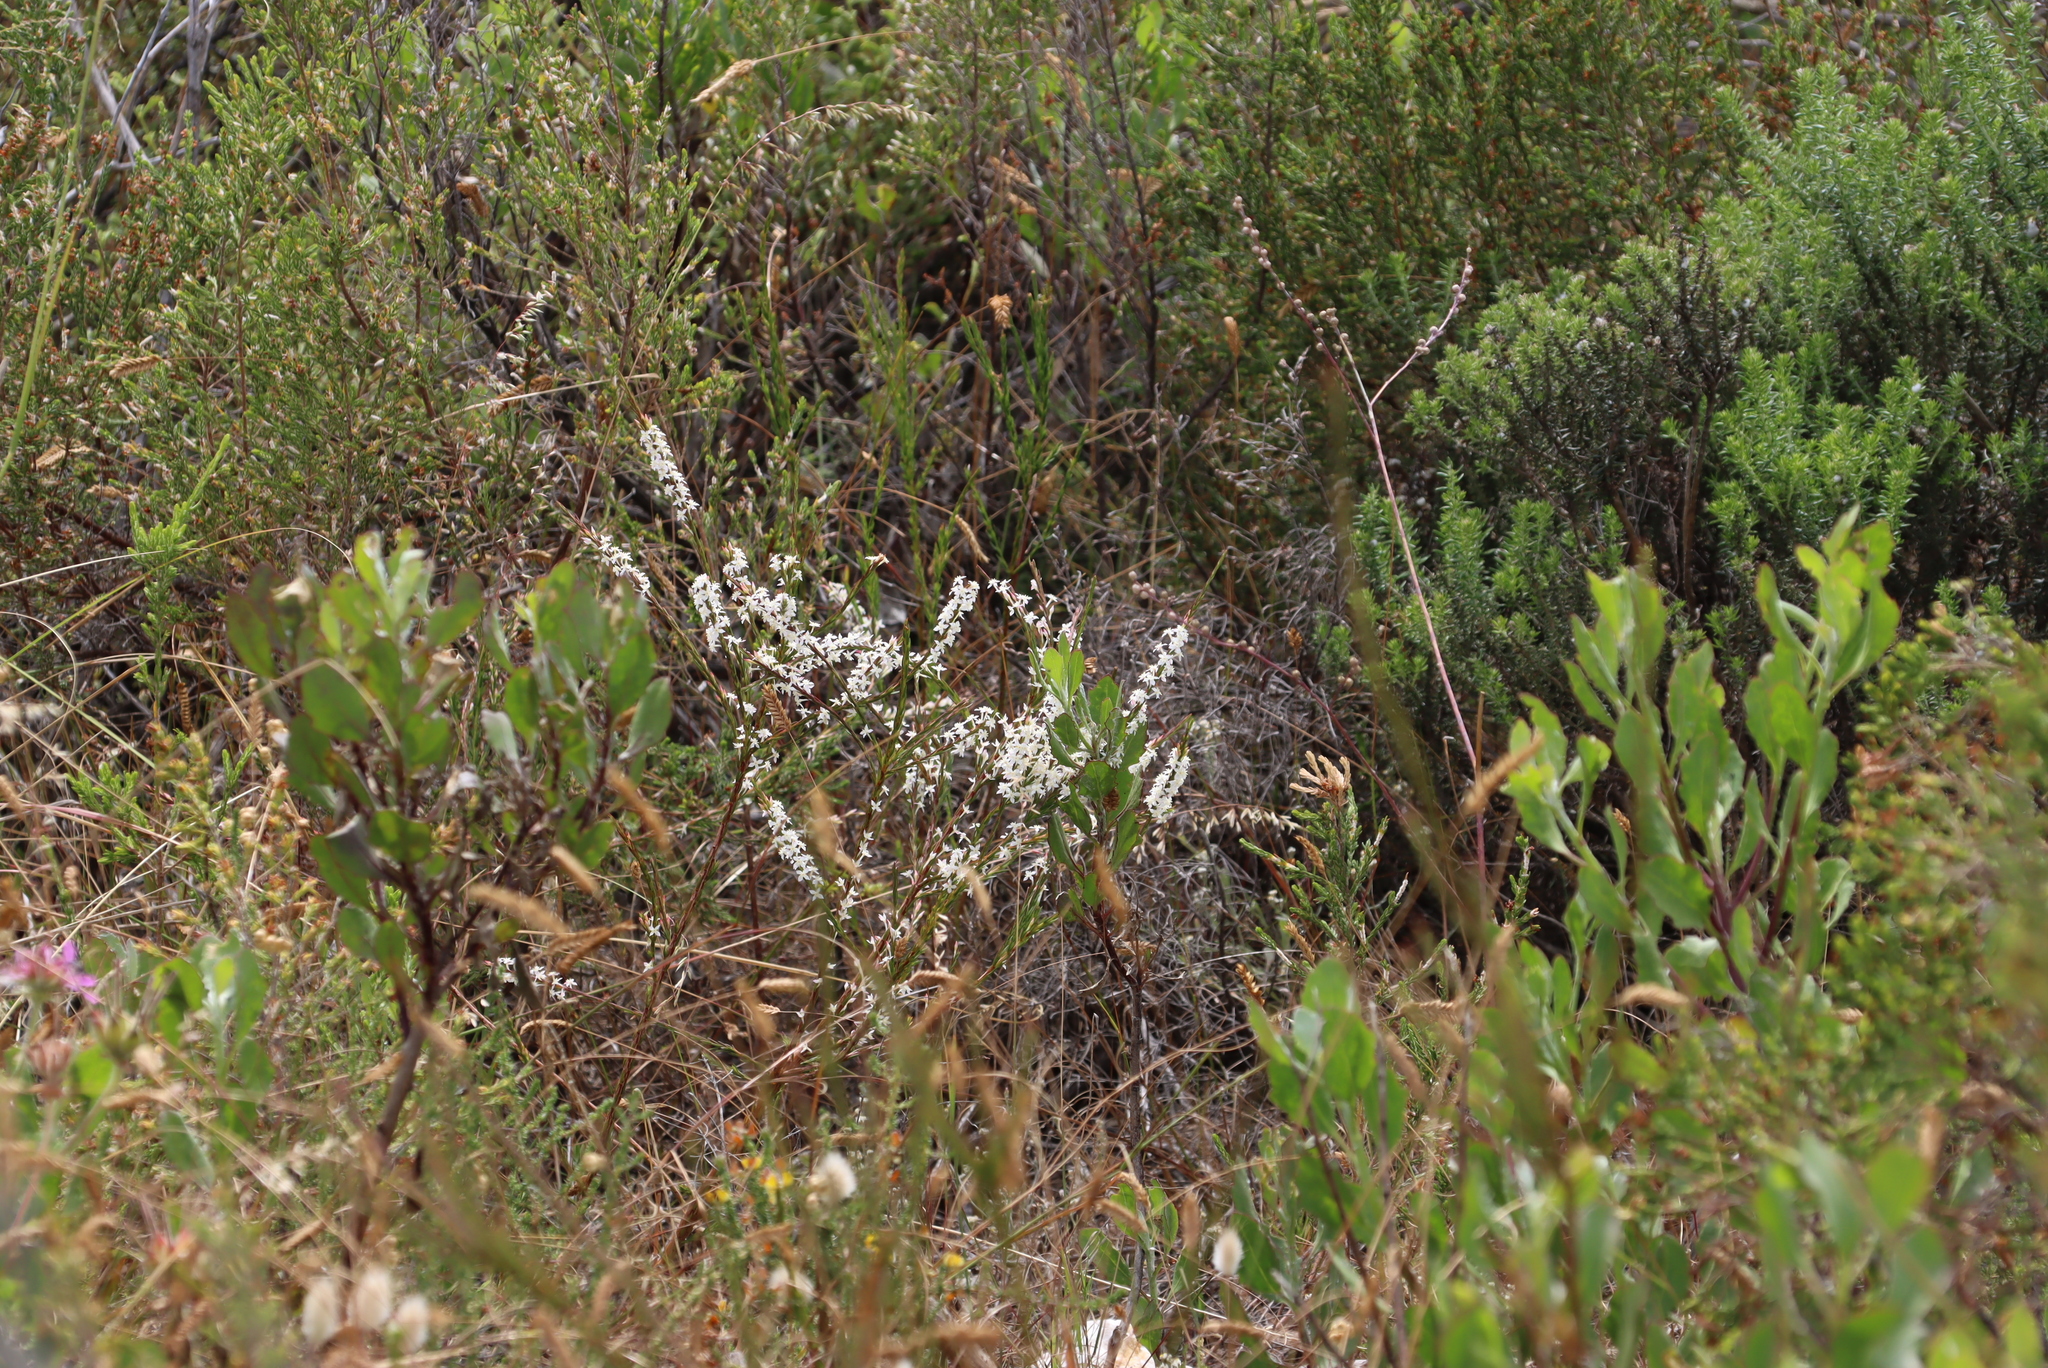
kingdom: Plantae
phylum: Tracheophyta
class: Magnoliopsida
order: Malvales
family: Thymelaeaceae
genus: Struthiola
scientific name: Struthiola dodecandra
